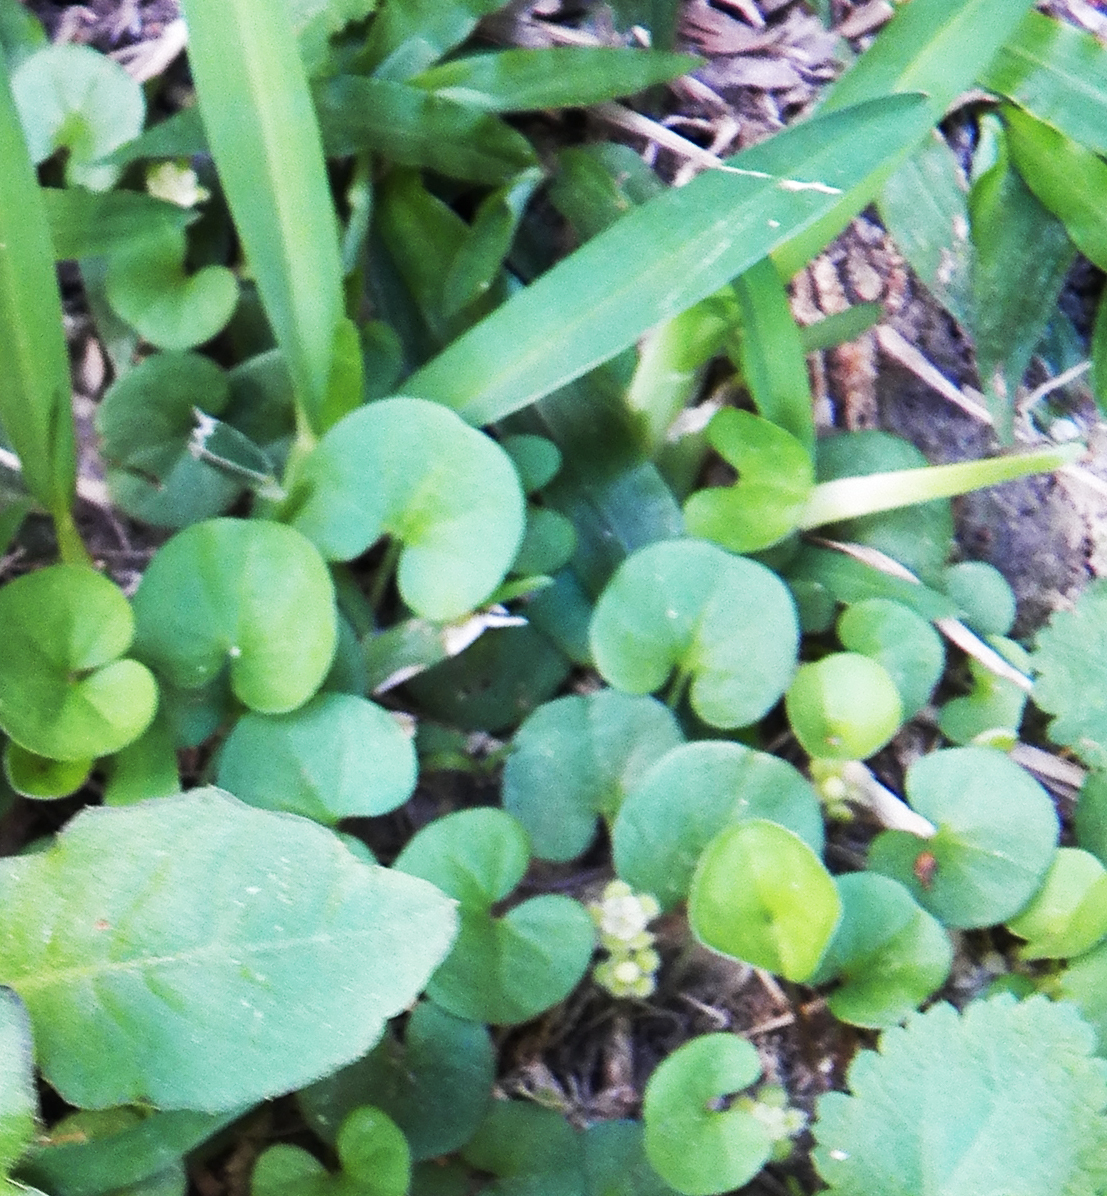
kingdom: Plantae
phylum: Tracheophyta
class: Magnoliopsida
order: Solanales
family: Convolvulaceae
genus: Dichondra
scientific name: Dichondra carolinensis
